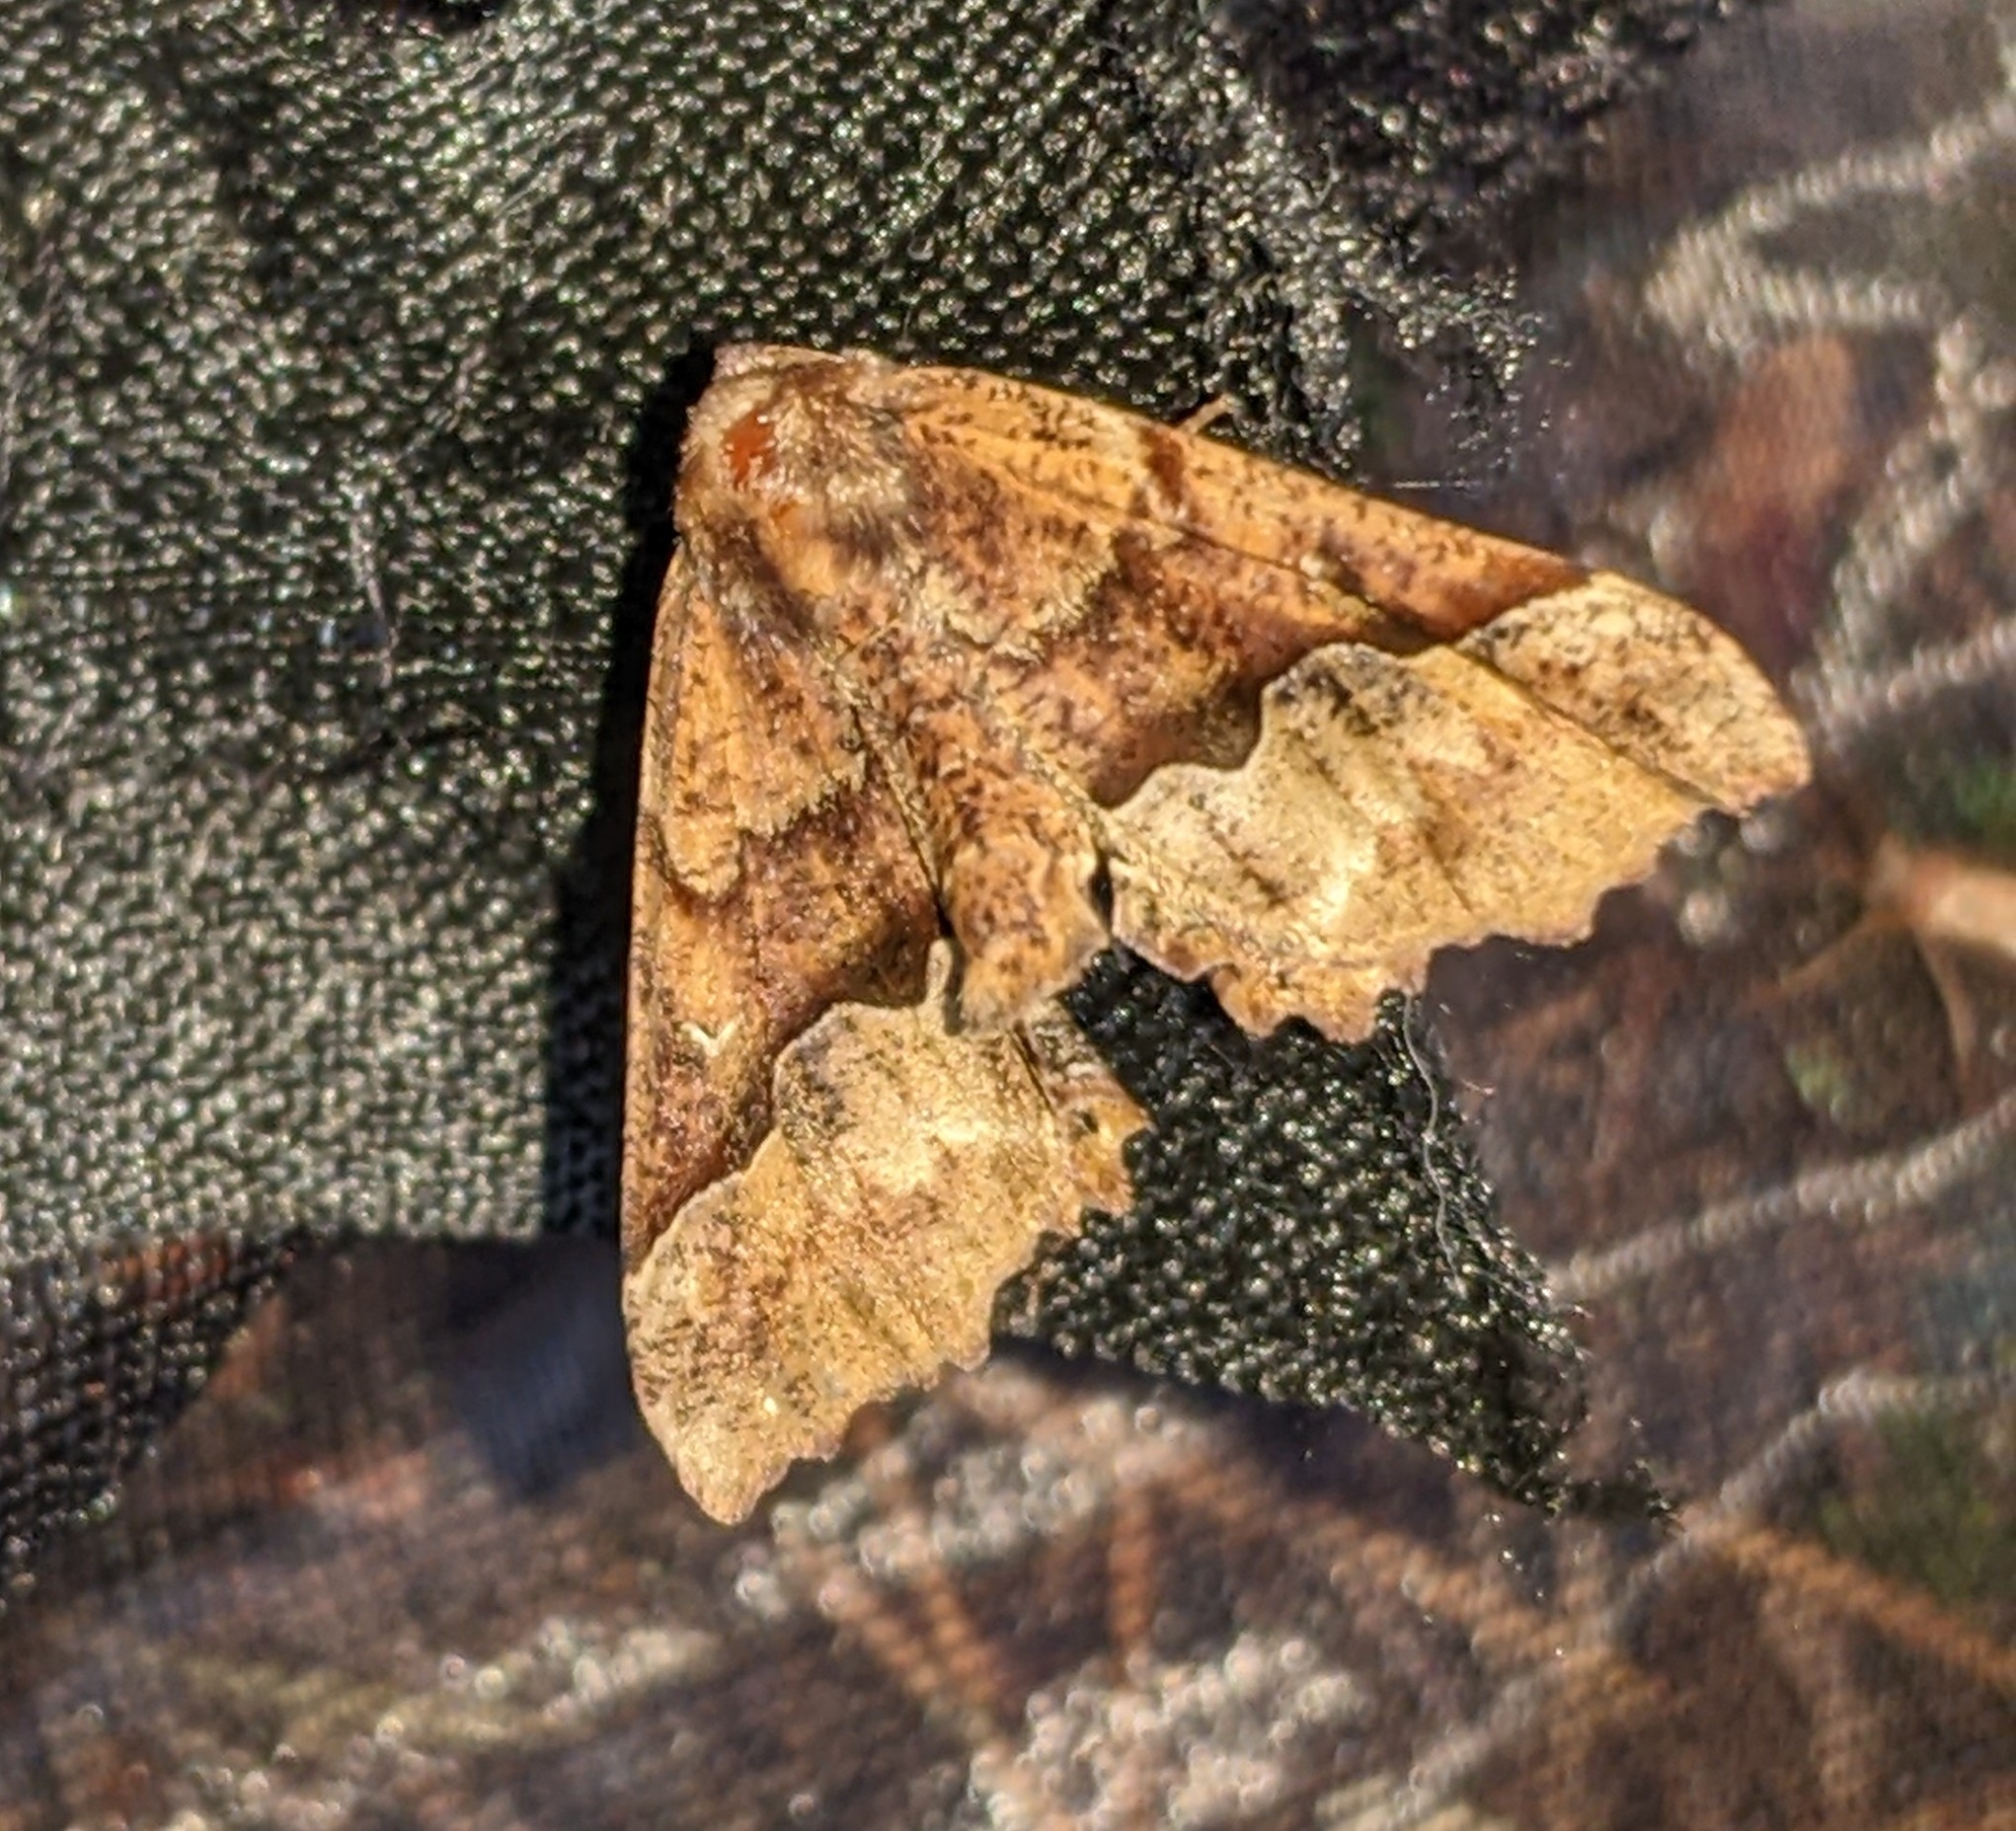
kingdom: Animalia
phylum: Arthropoda
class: Insecta
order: Lepidoptera
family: Geometridae
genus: Pero
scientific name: Pero morrisonaria
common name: Morrison's pero
